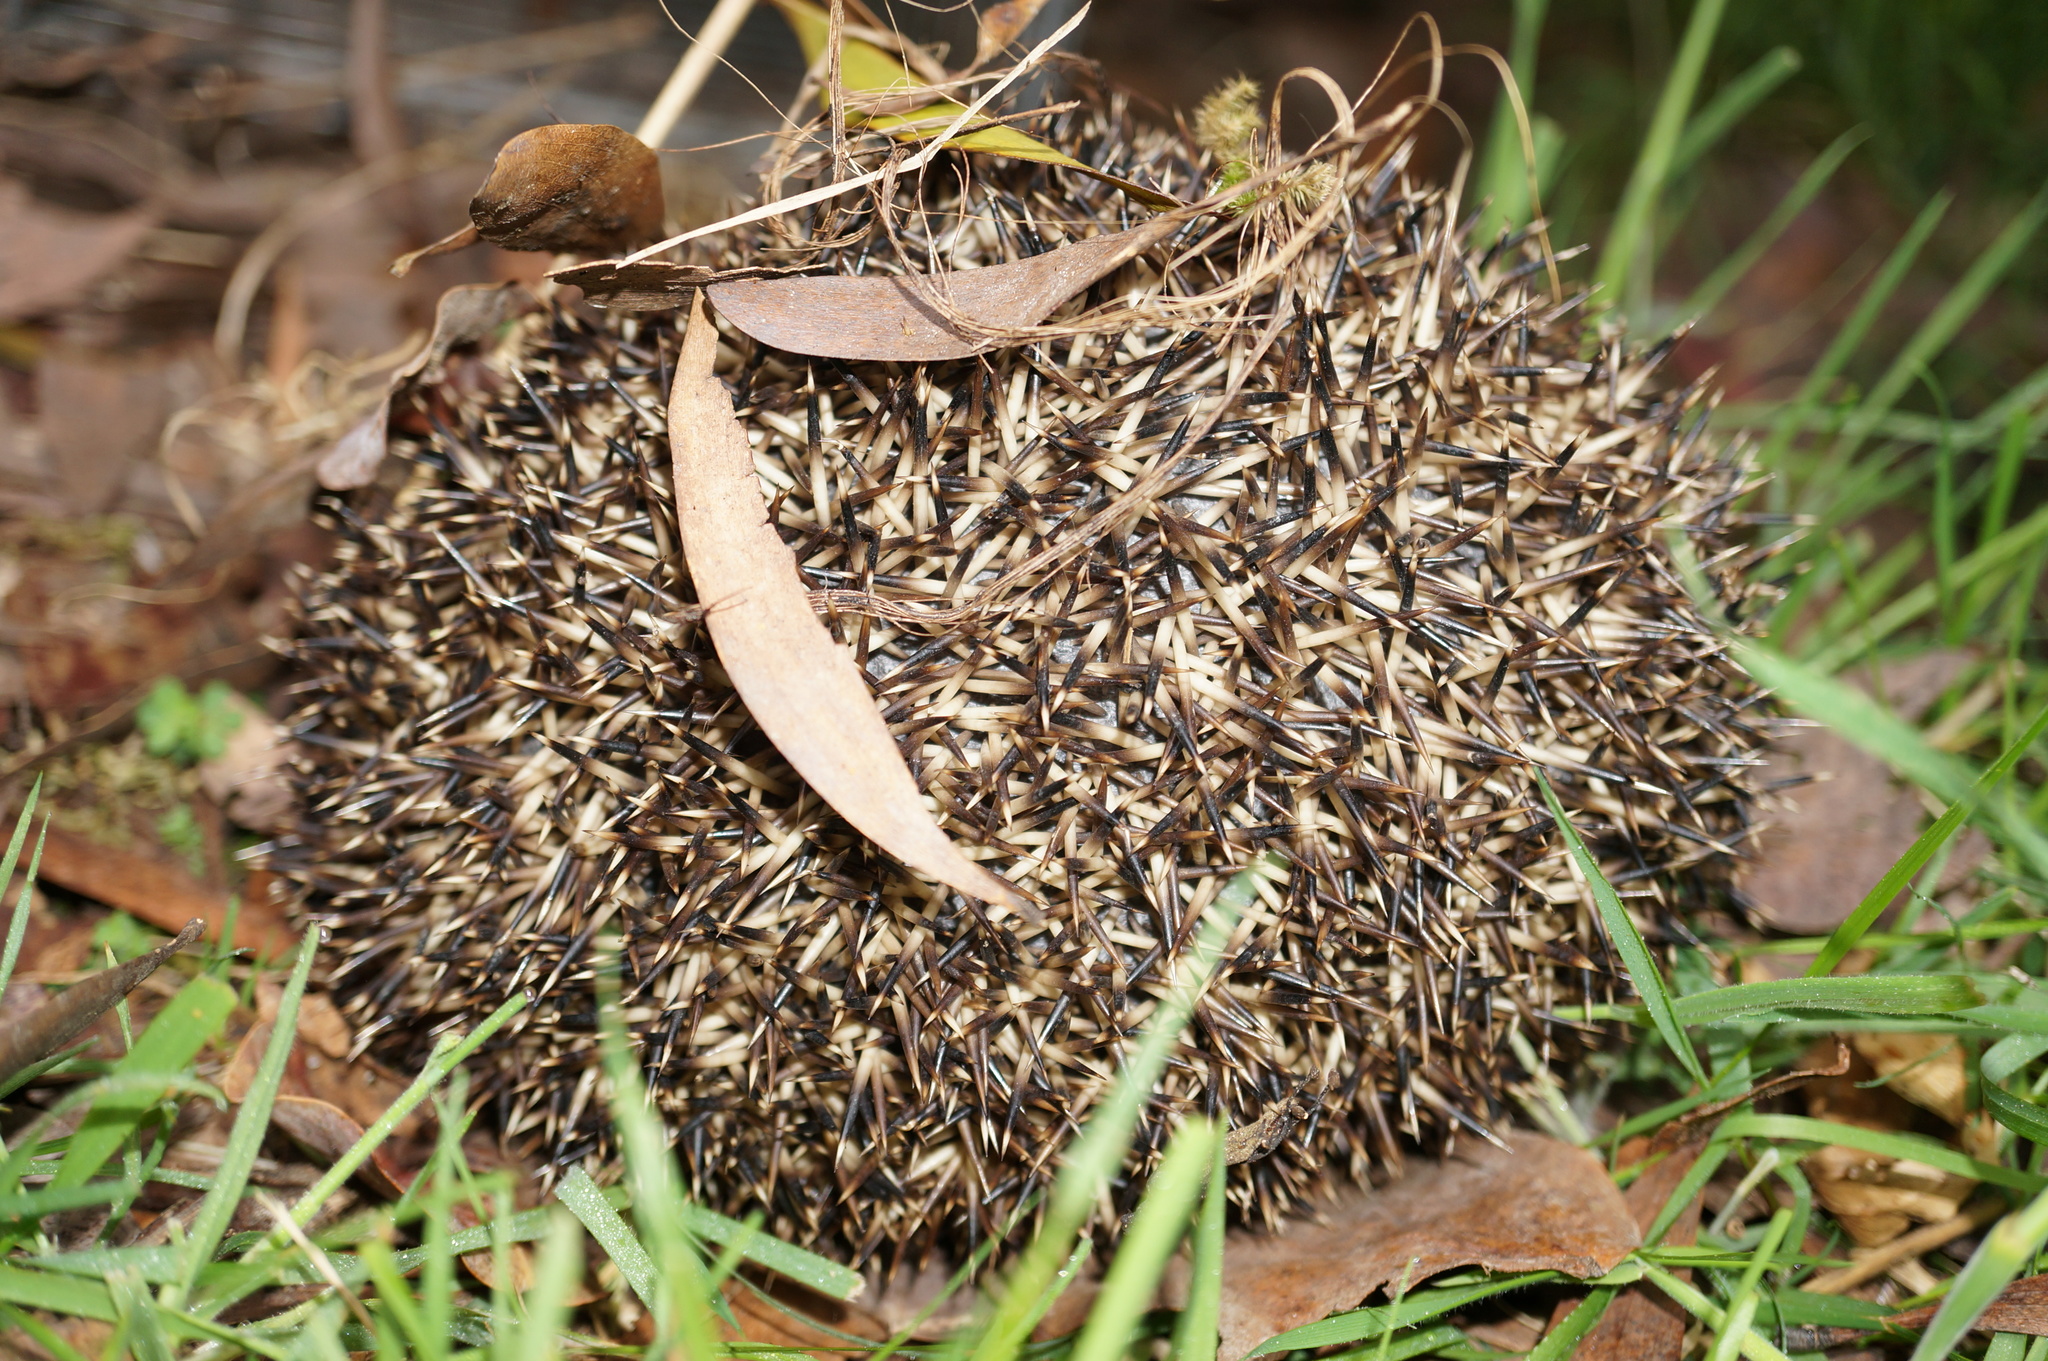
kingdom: Animalia
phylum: Chordata
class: Mammalia
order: Erinaceomorpha
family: Erinaceidae
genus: Erinaceus
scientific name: Erinaceus europaeus
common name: West european hedgehog
